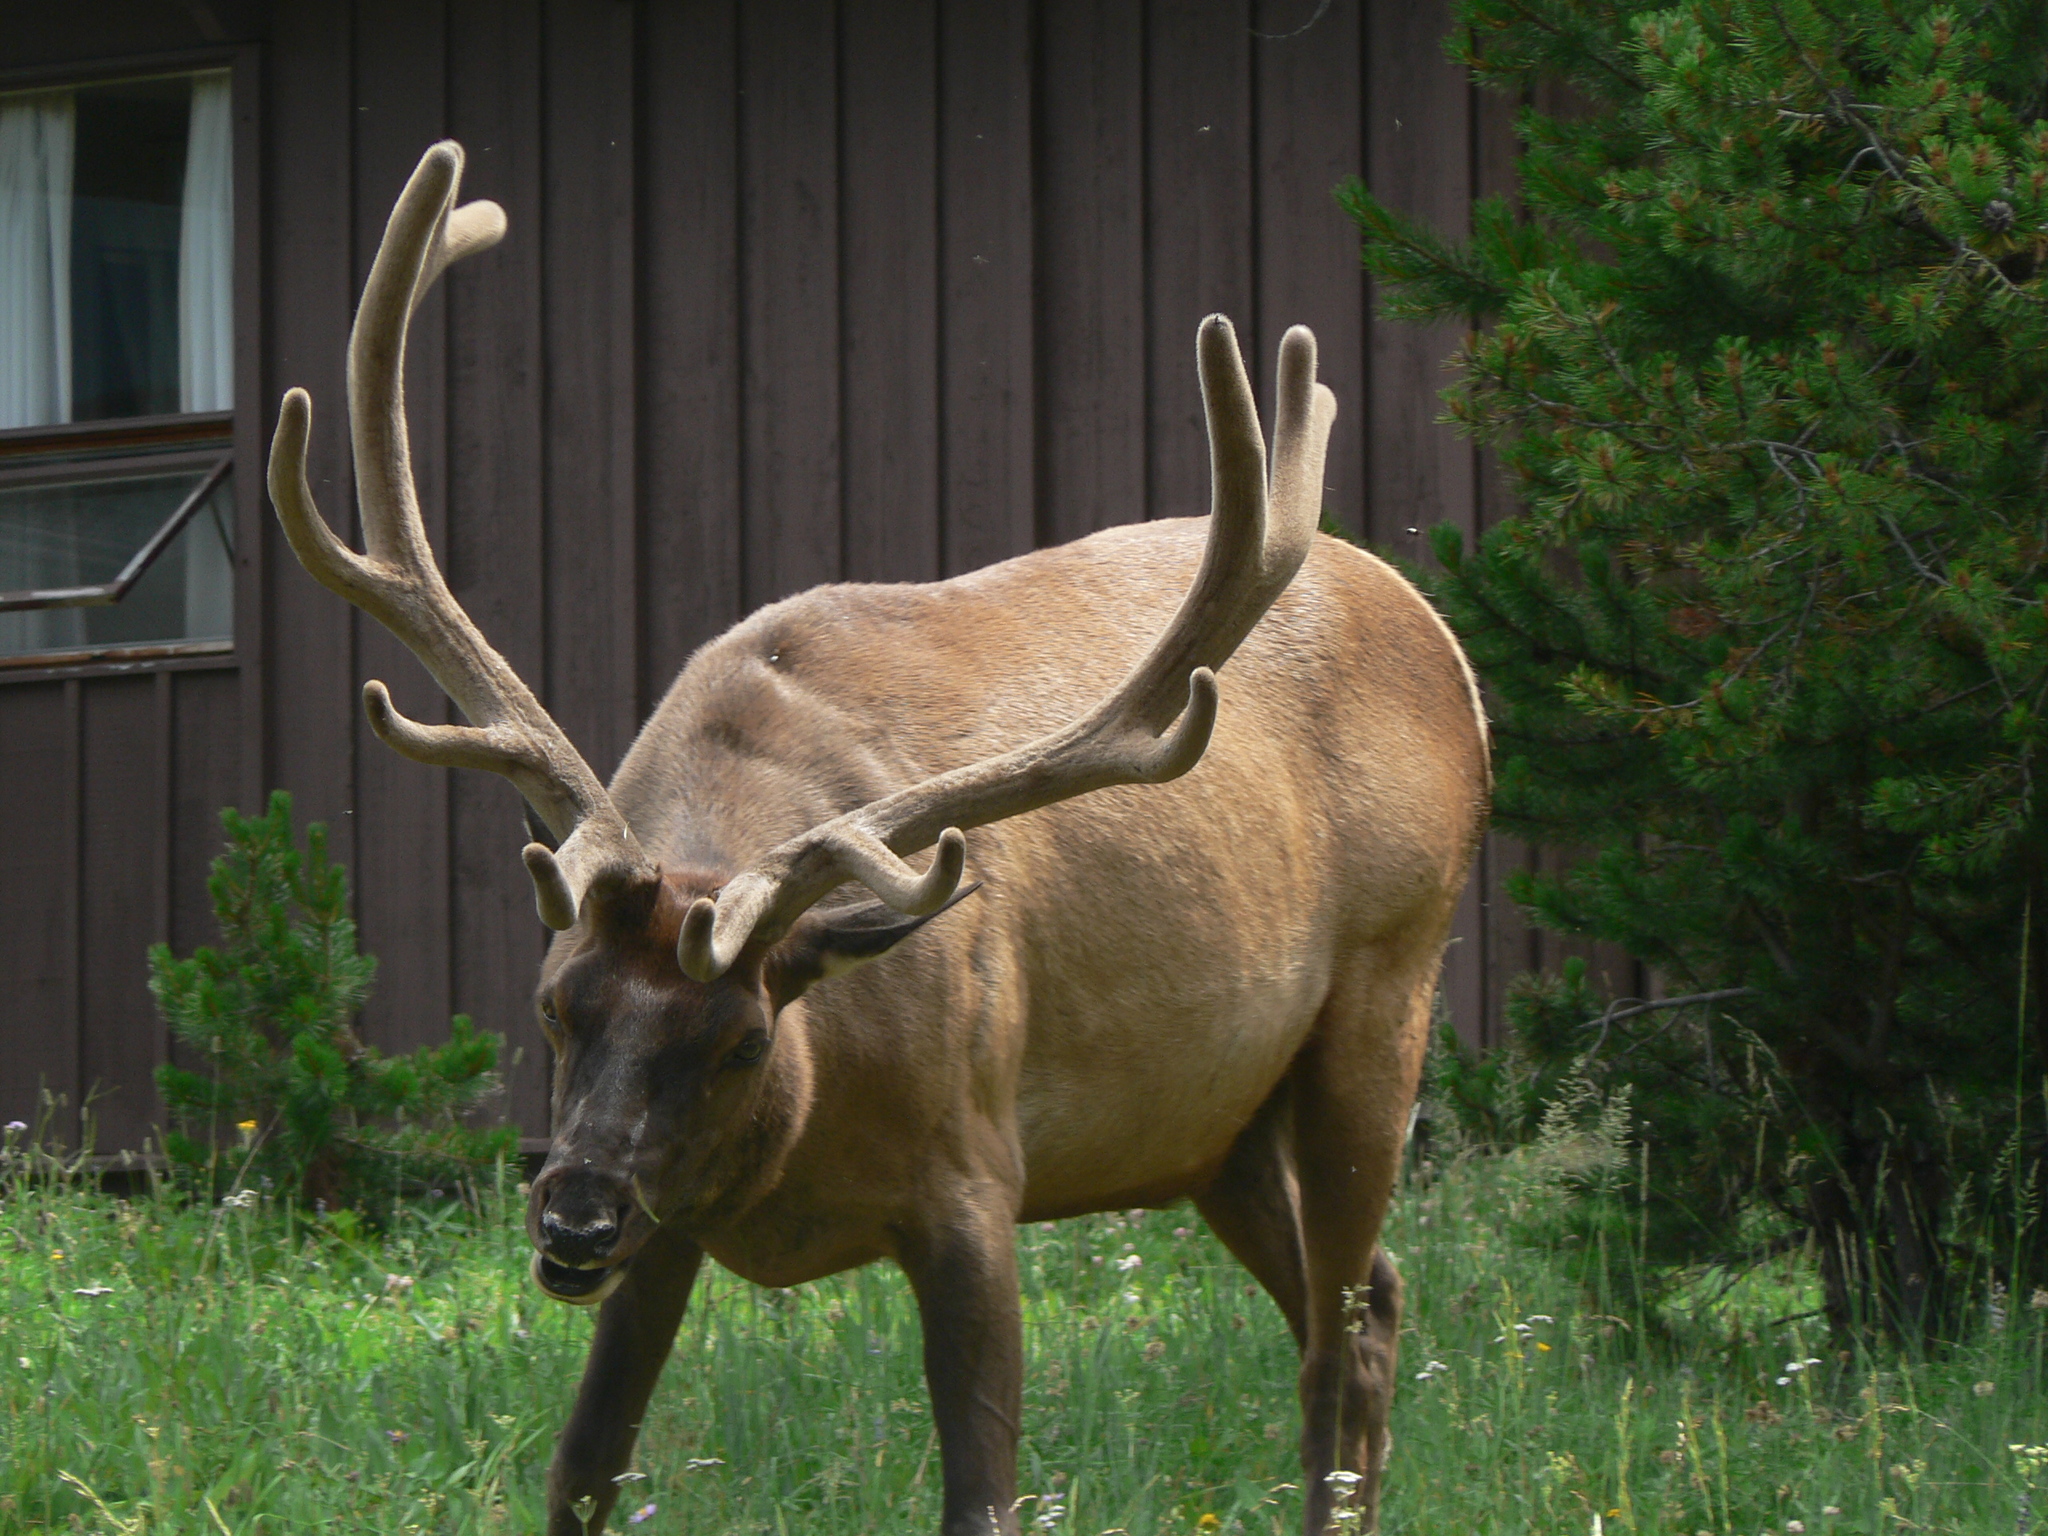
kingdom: Animalia
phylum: Chordata
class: Mammalia
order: Artiodactyla
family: Cervidae
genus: Cervus
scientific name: Cervus elaphus
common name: Red deer
